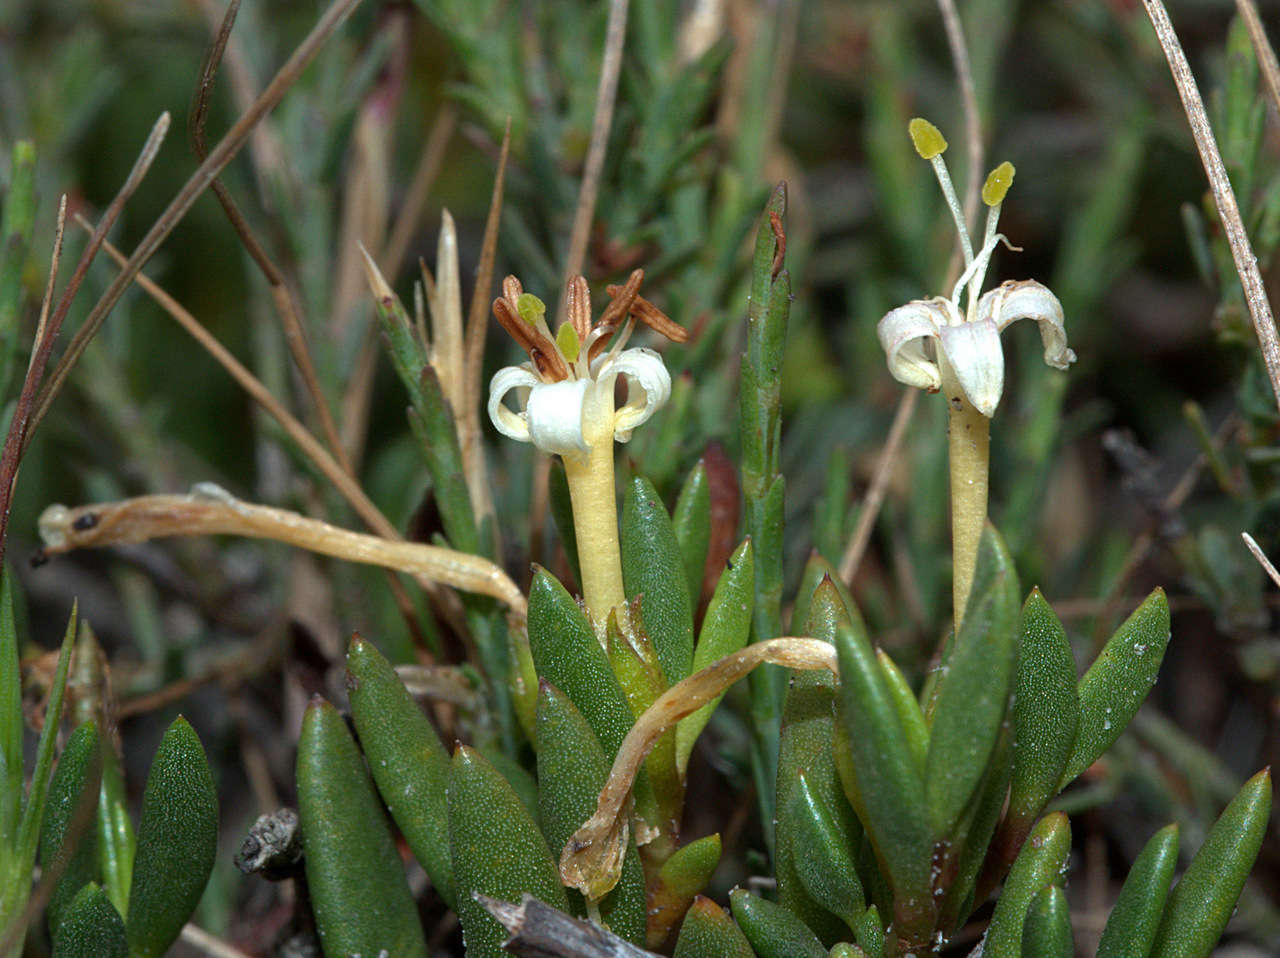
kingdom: Plantae
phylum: Tracheophyta
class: Magnoliopsida
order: Solanales
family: Convolvulaceae
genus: Wilsonia
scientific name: Wilsonia backhousei
